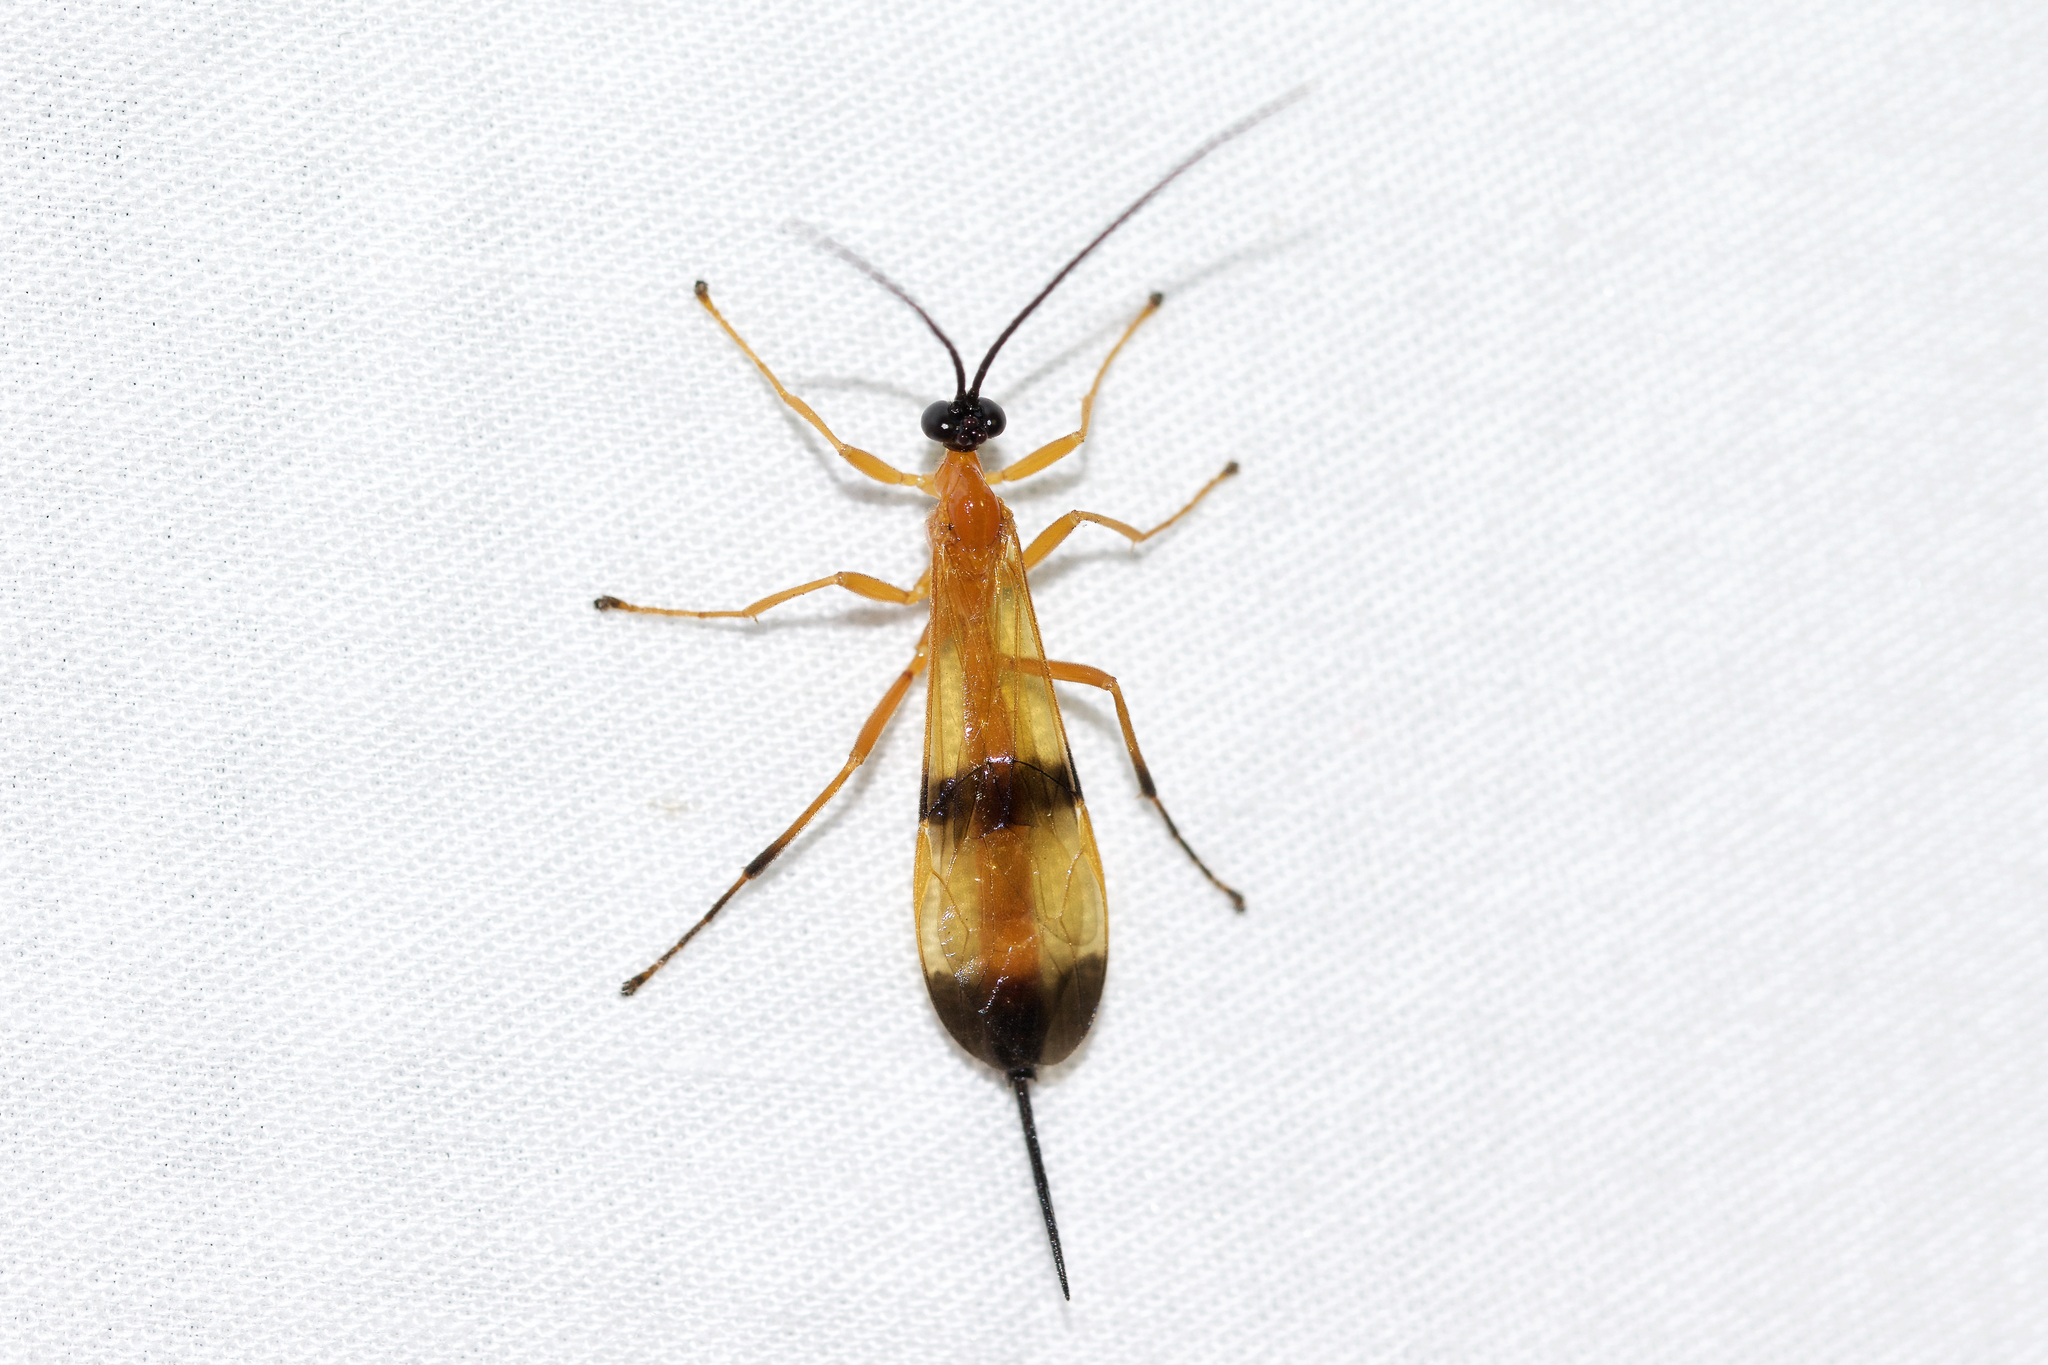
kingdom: Animalia
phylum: Arthropoda
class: Insecta
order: Hymenoptera
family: Ichneumonidae
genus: Acrotaphus
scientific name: Acrotaphus wiltii
